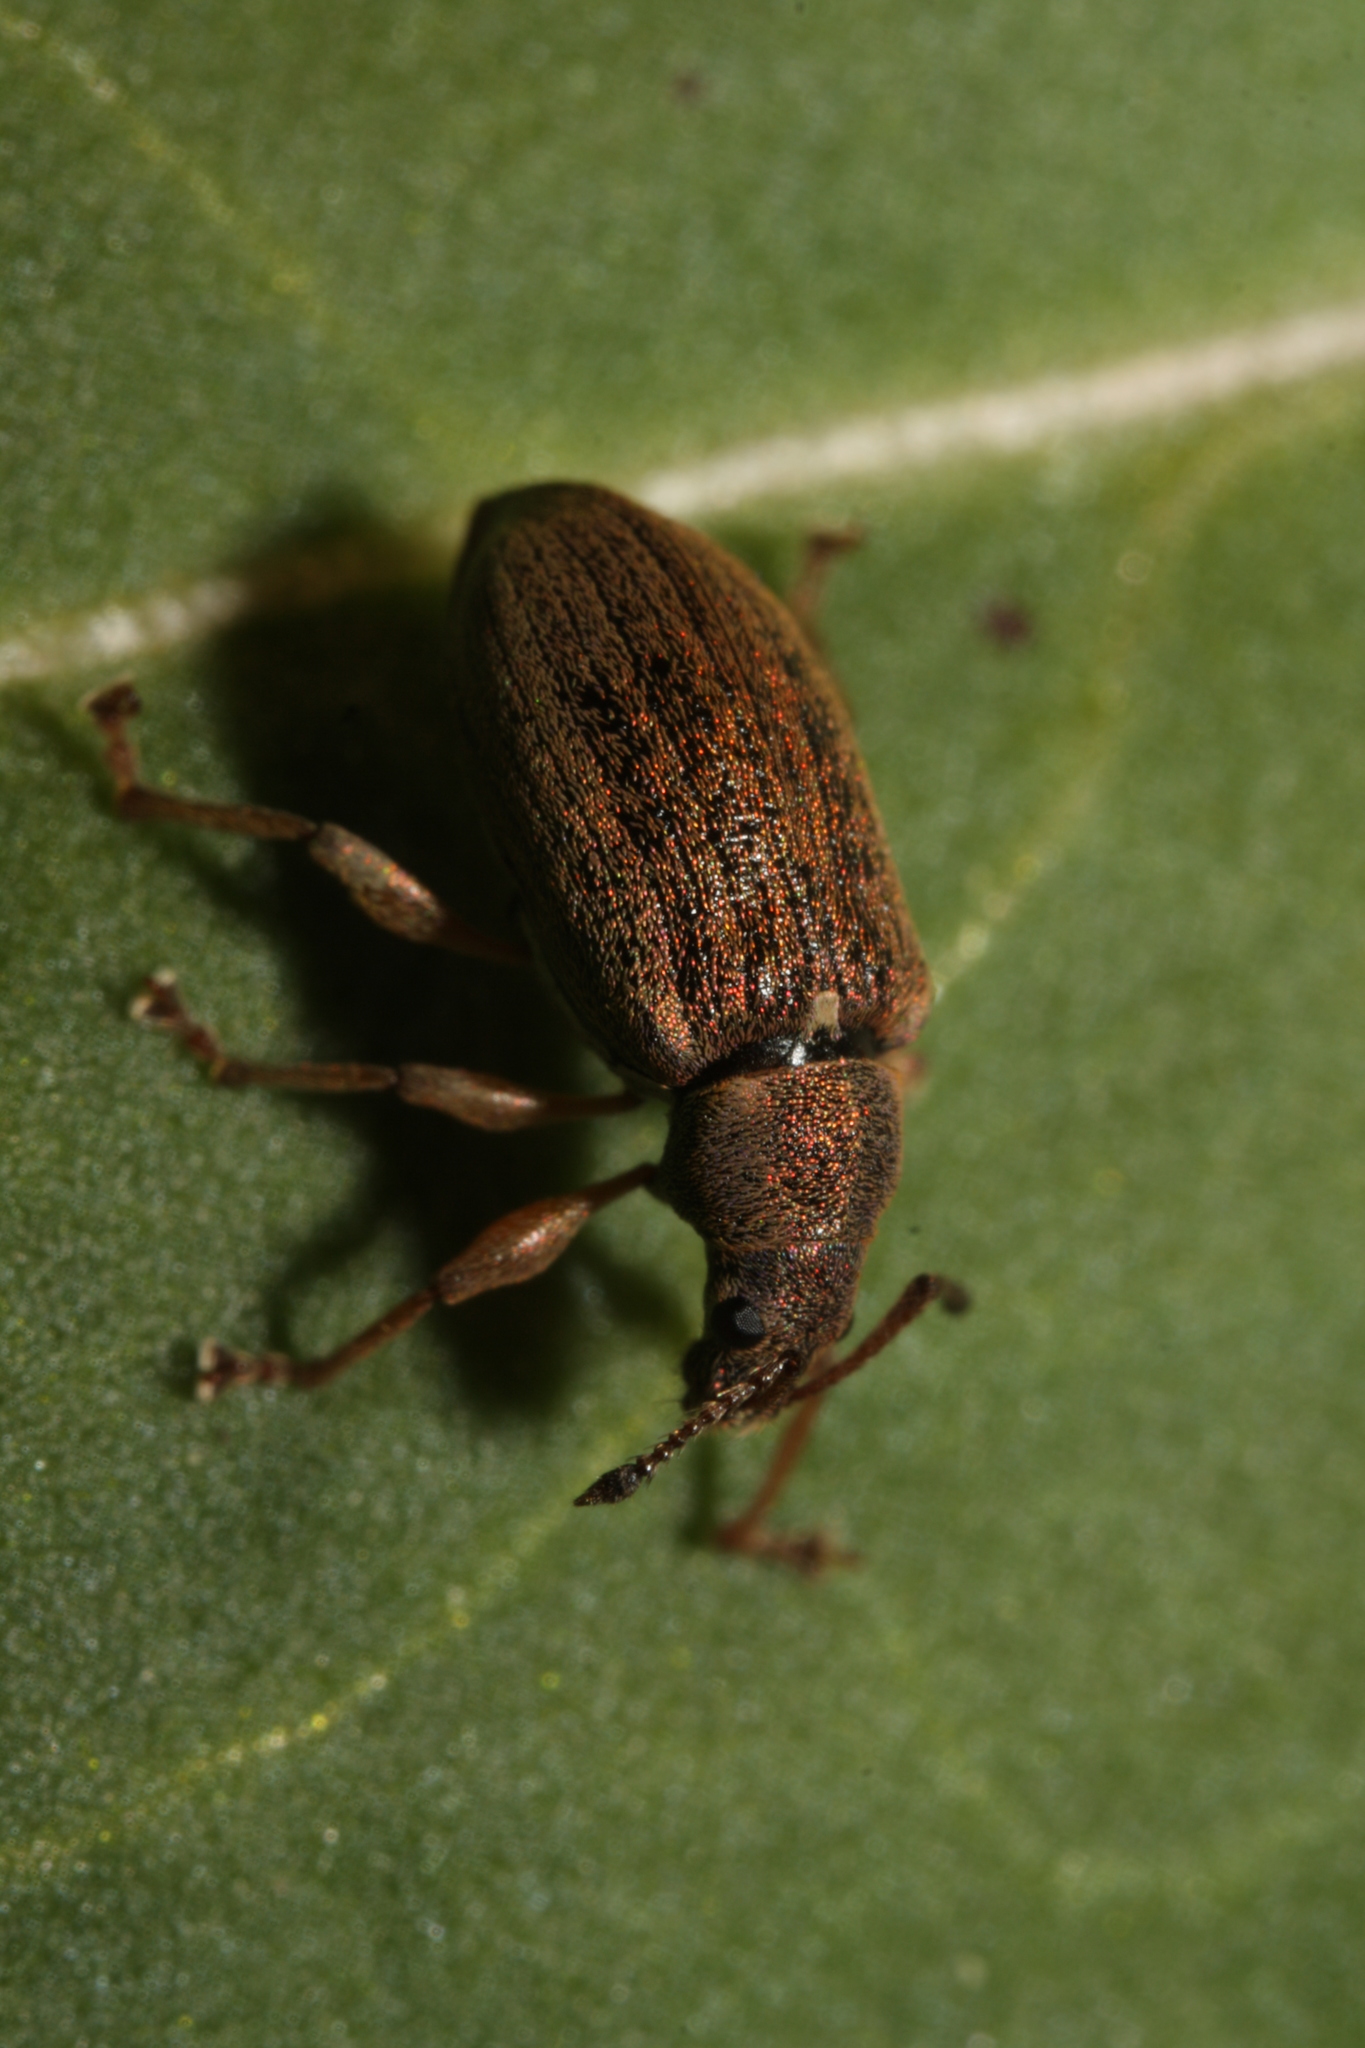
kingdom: Animalia
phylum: Arthropoda
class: Insecta
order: Coleoptera
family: Curculionidae
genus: Phyllobius
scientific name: Phyllobius pyri
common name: Common leaf weevil
